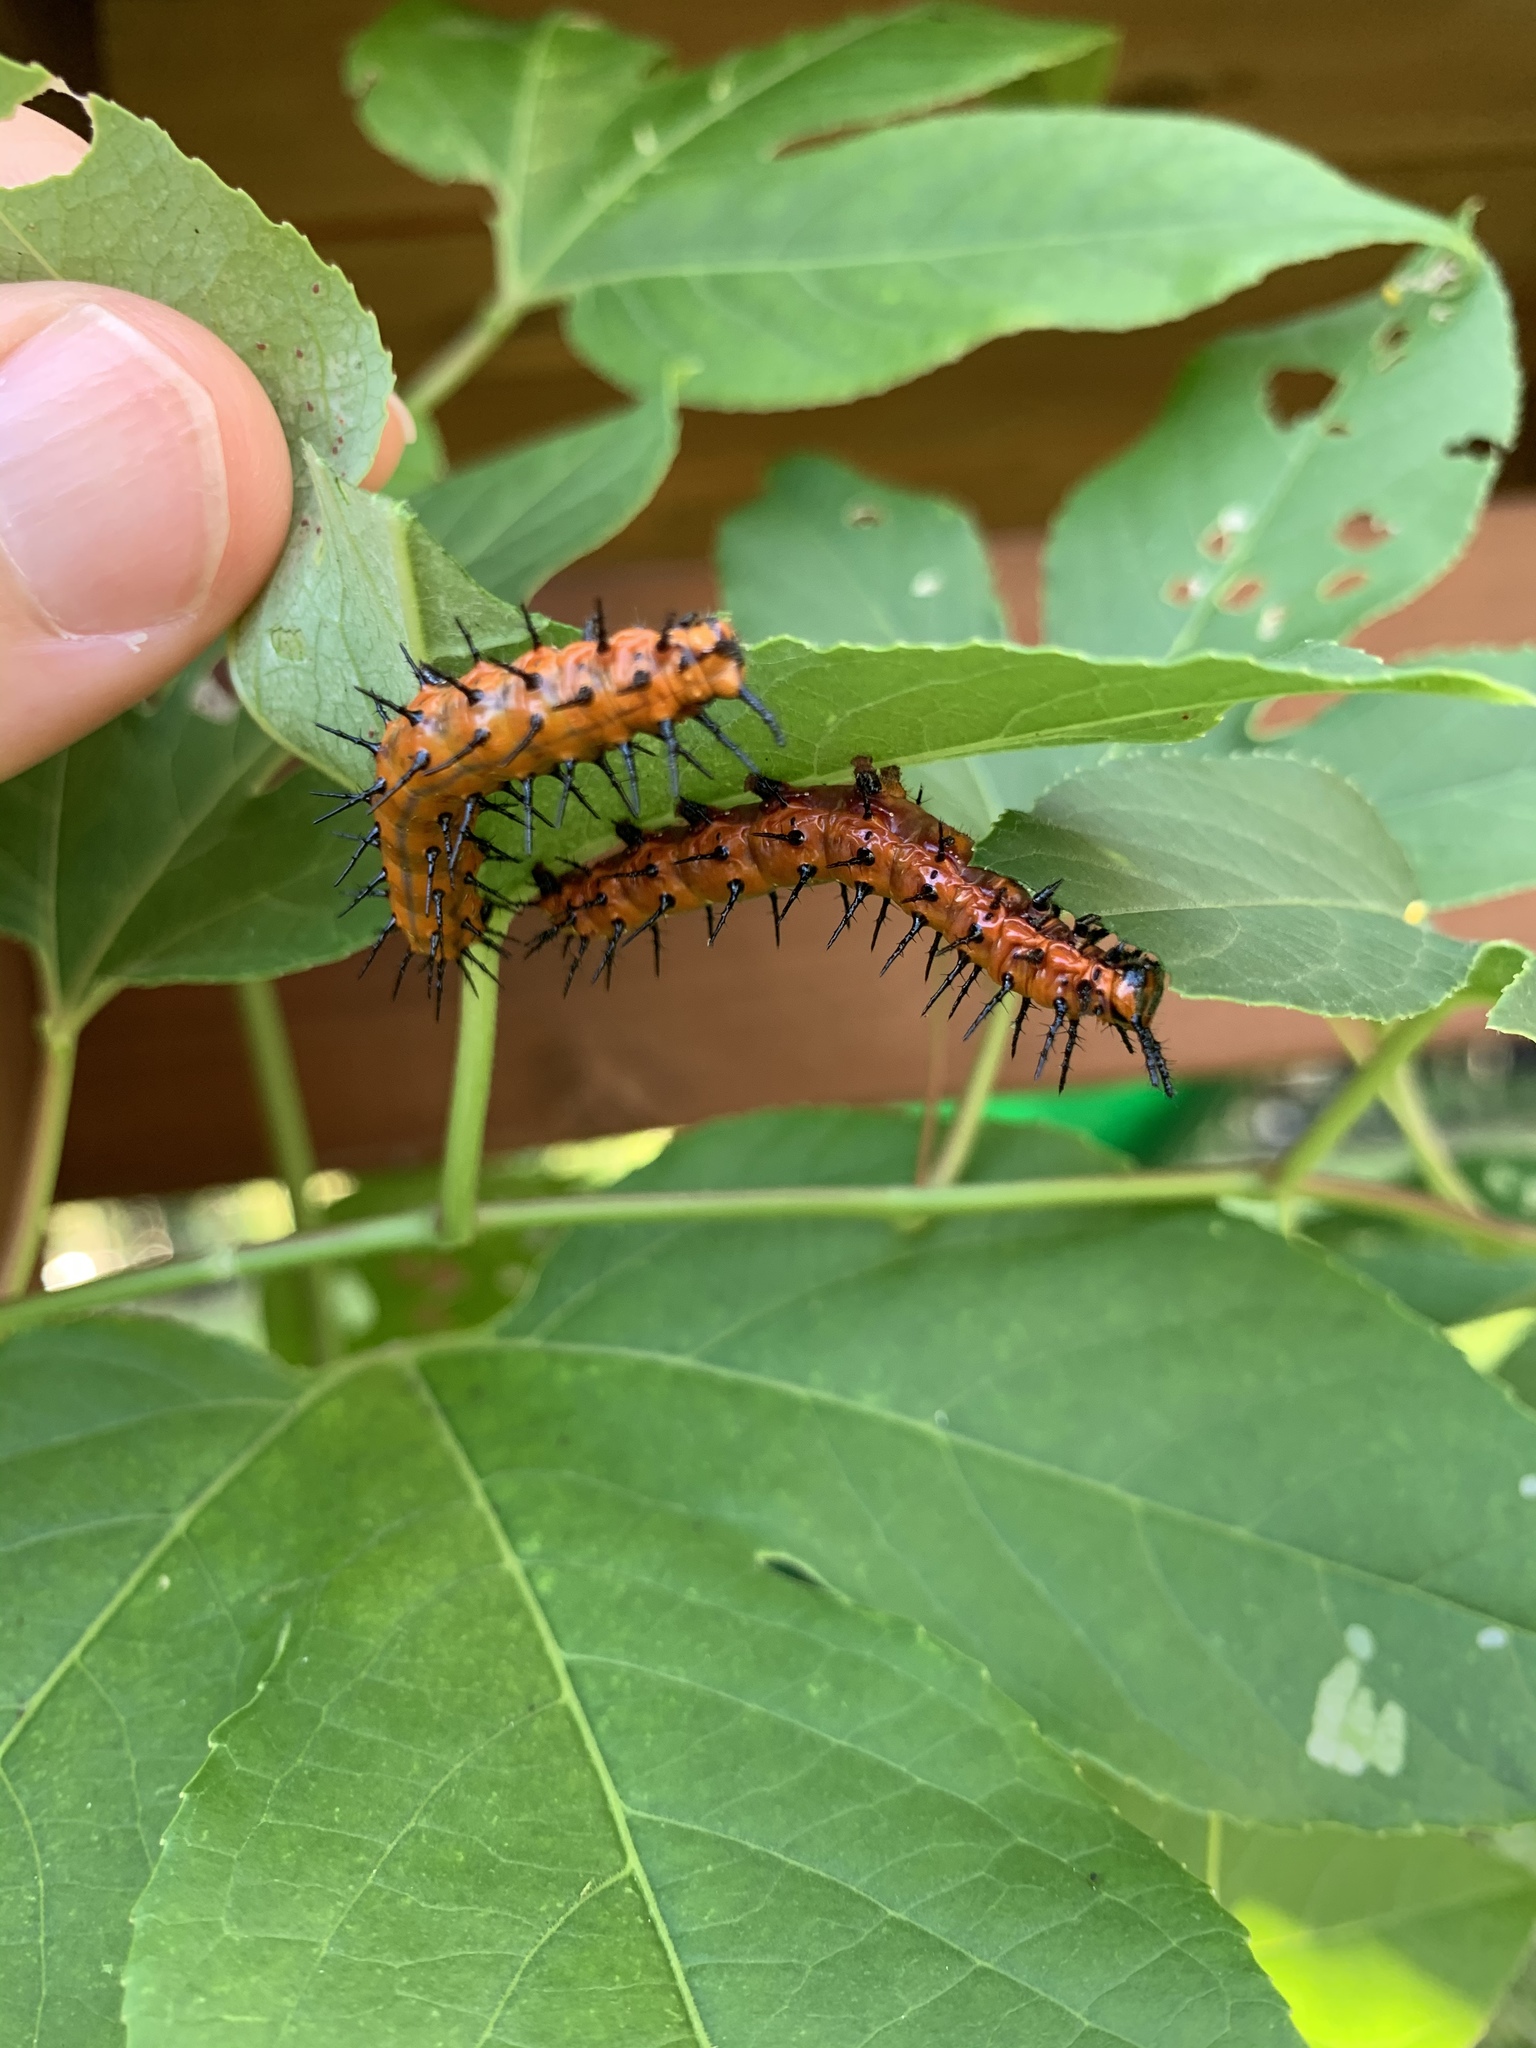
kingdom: Animalia
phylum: Arthropoda
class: Insecta
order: Lepidoptera
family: Nymphalidae
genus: Dione
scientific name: Dione vanillae
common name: Gulf fritillary
